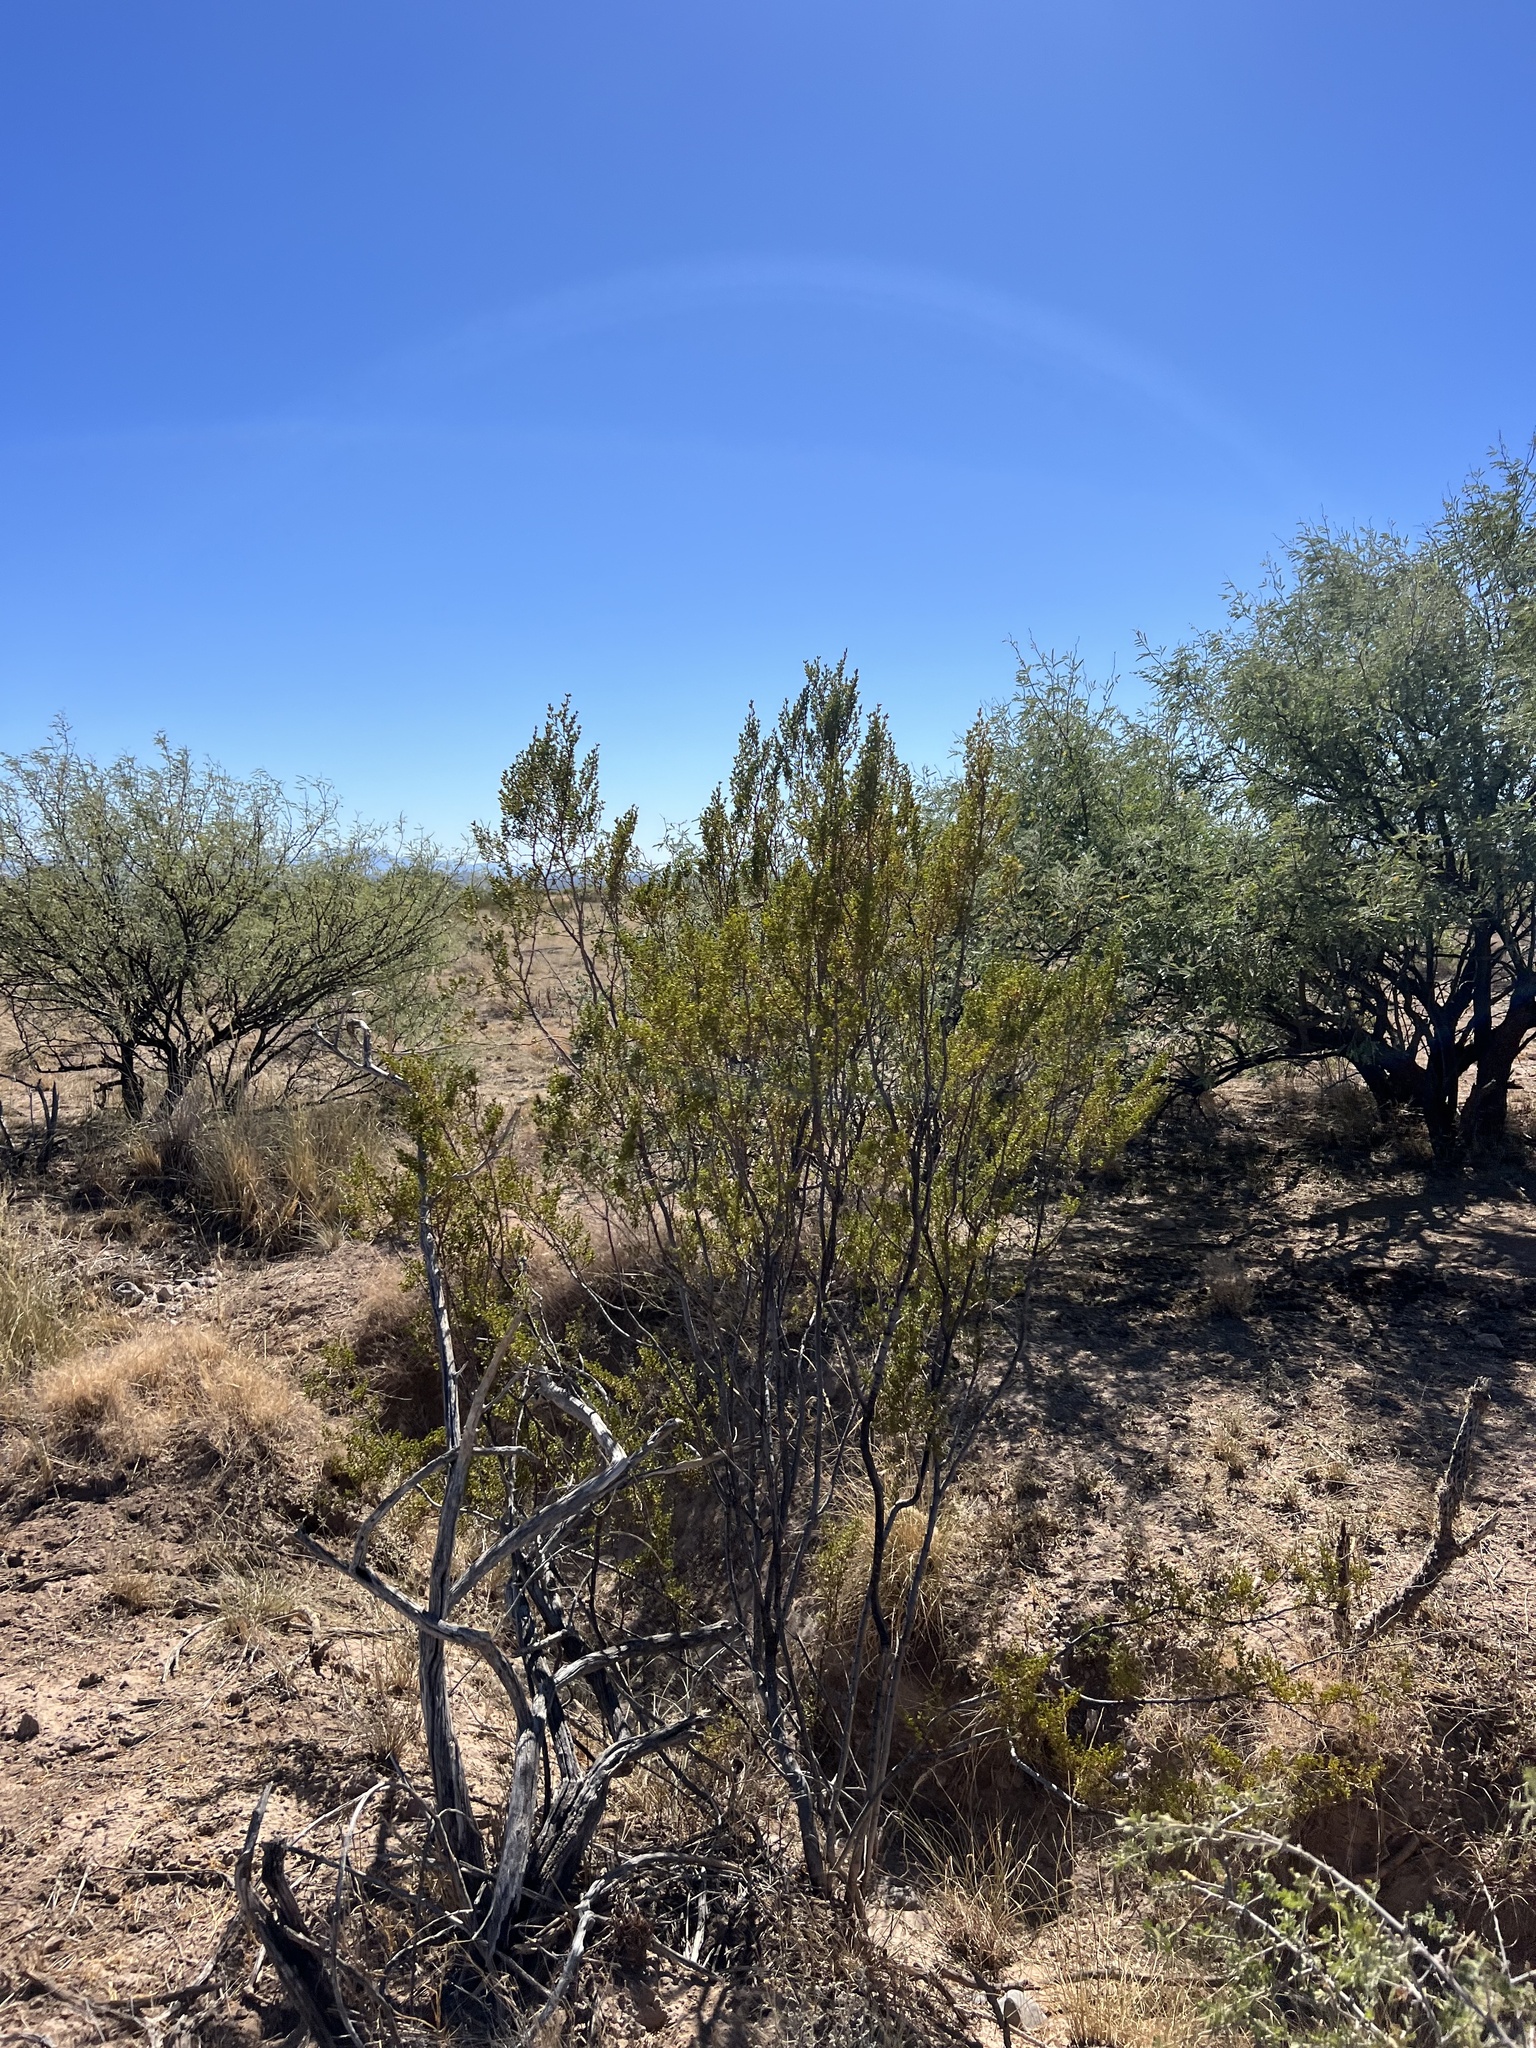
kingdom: Plantae
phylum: Tracheophyta
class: Magnoliopsida
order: Zygophyllales
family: Zygophyllaceae
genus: Larrea
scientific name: Larrea tridentata
